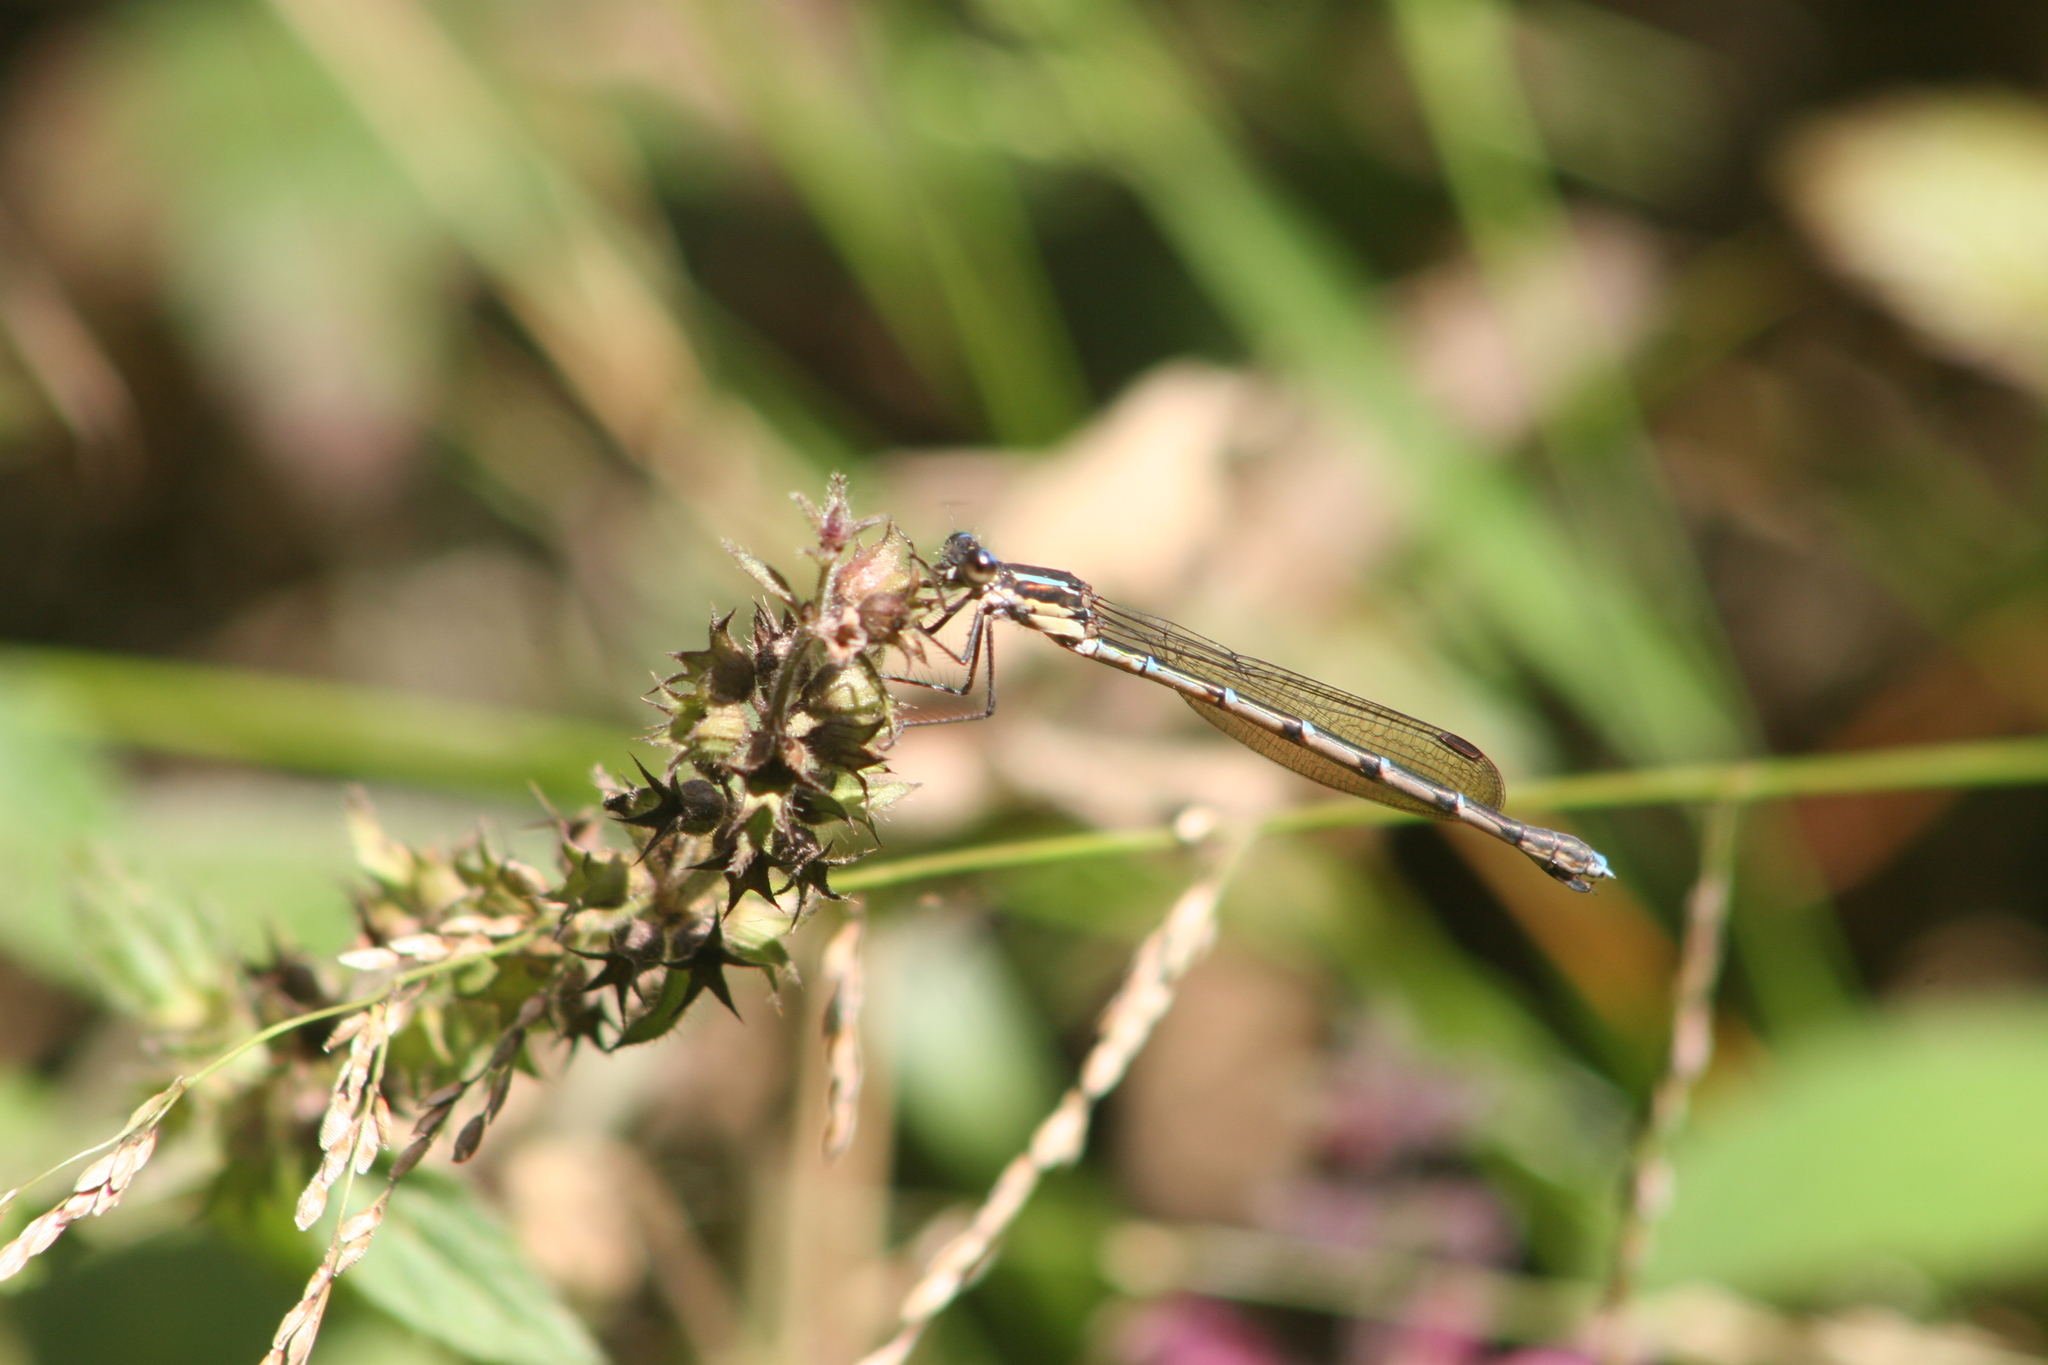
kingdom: Animalia
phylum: Arthropoda
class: Insecta
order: Odonata
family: Lestidae
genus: Austrolestes
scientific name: Austrolestes colensonis
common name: Blue damselfly
